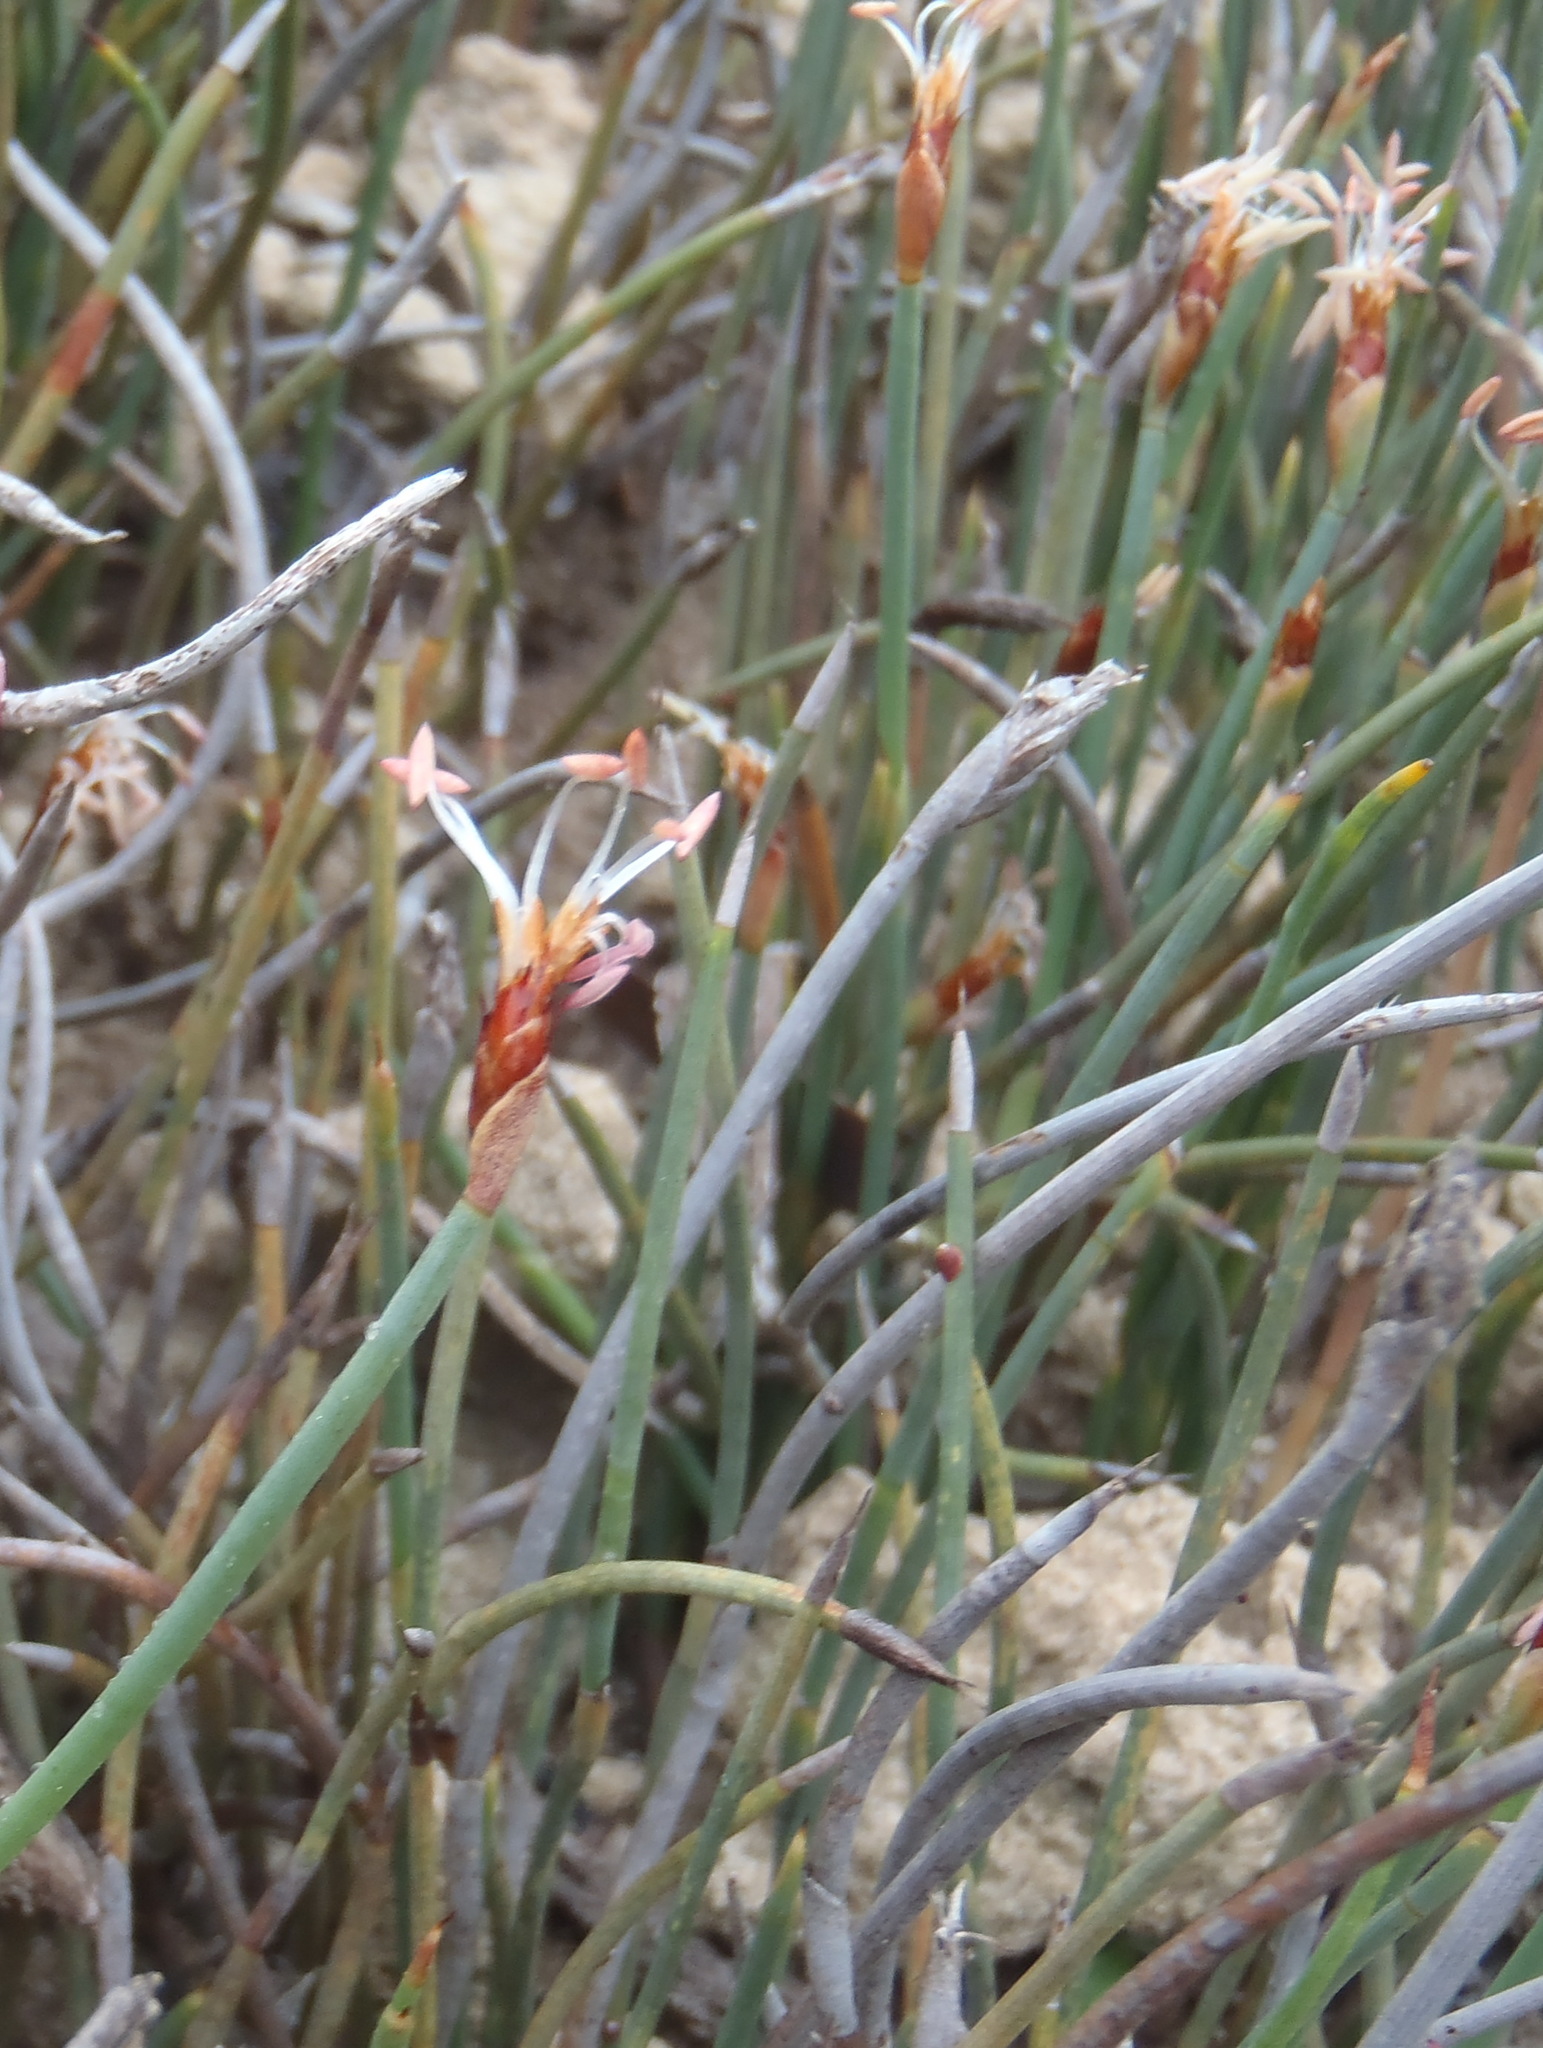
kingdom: Plantae
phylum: Tracheophyta
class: Liliopsida
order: Poales
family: Restionaceae
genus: Hypodiscus
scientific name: Hypodiscus procurrens
